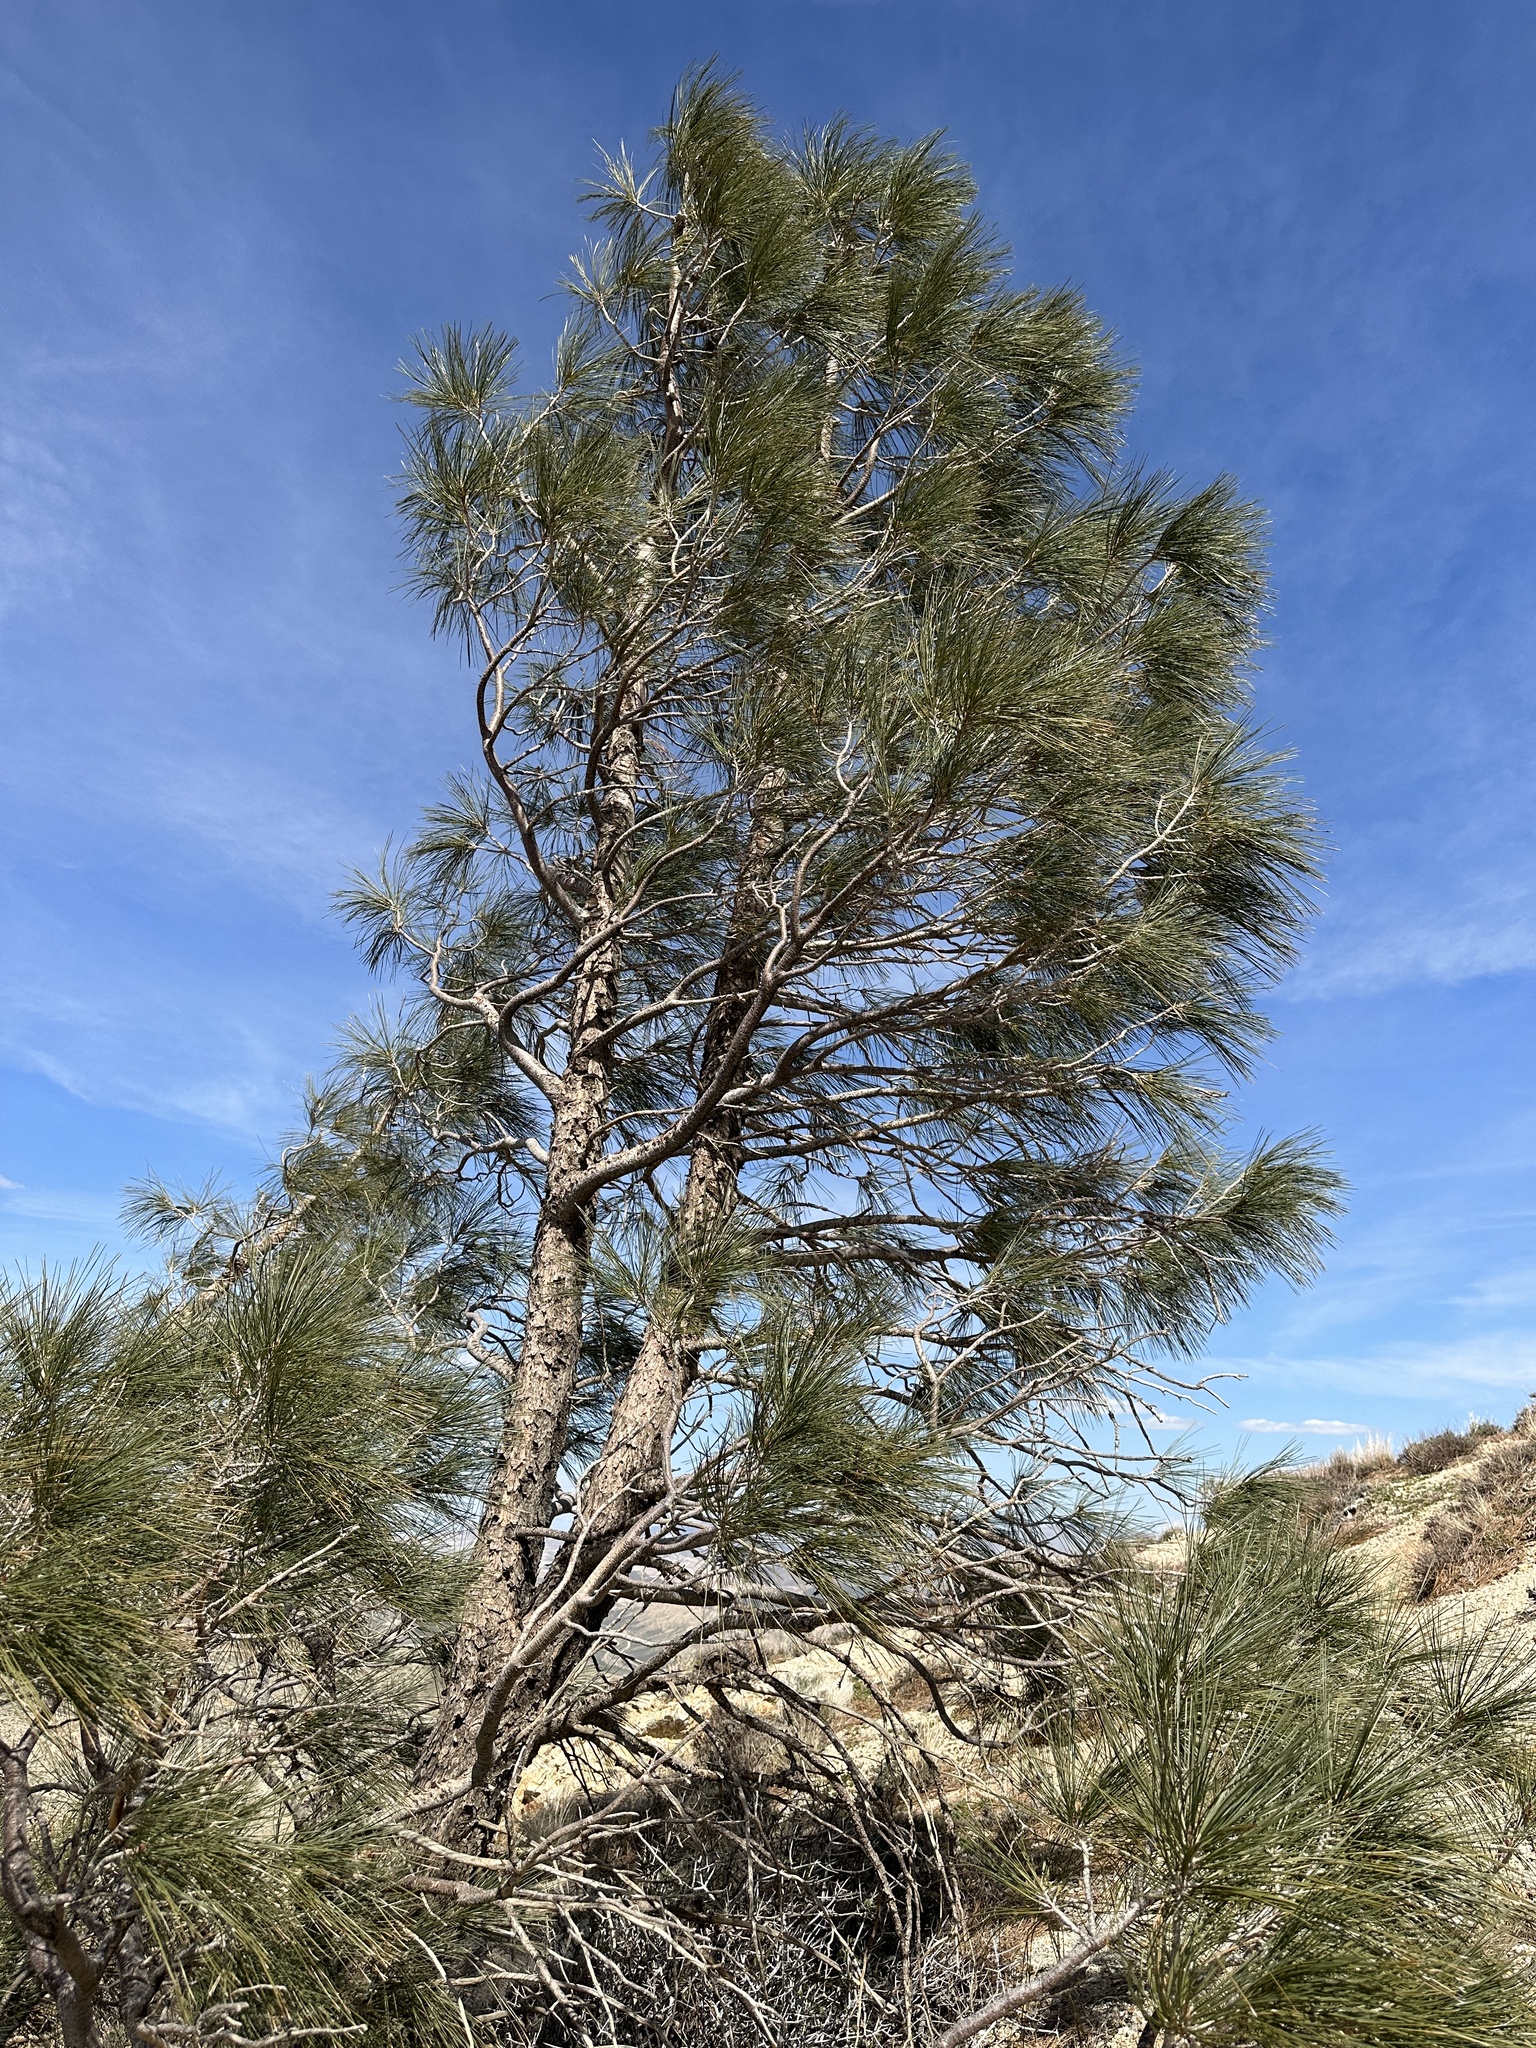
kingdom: Plantae
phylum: Tracheophyta
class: Pinopsida
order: Pinales
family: Pinaceae
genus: Pinus
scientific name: Pinus sabiniana
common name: Bull pine
